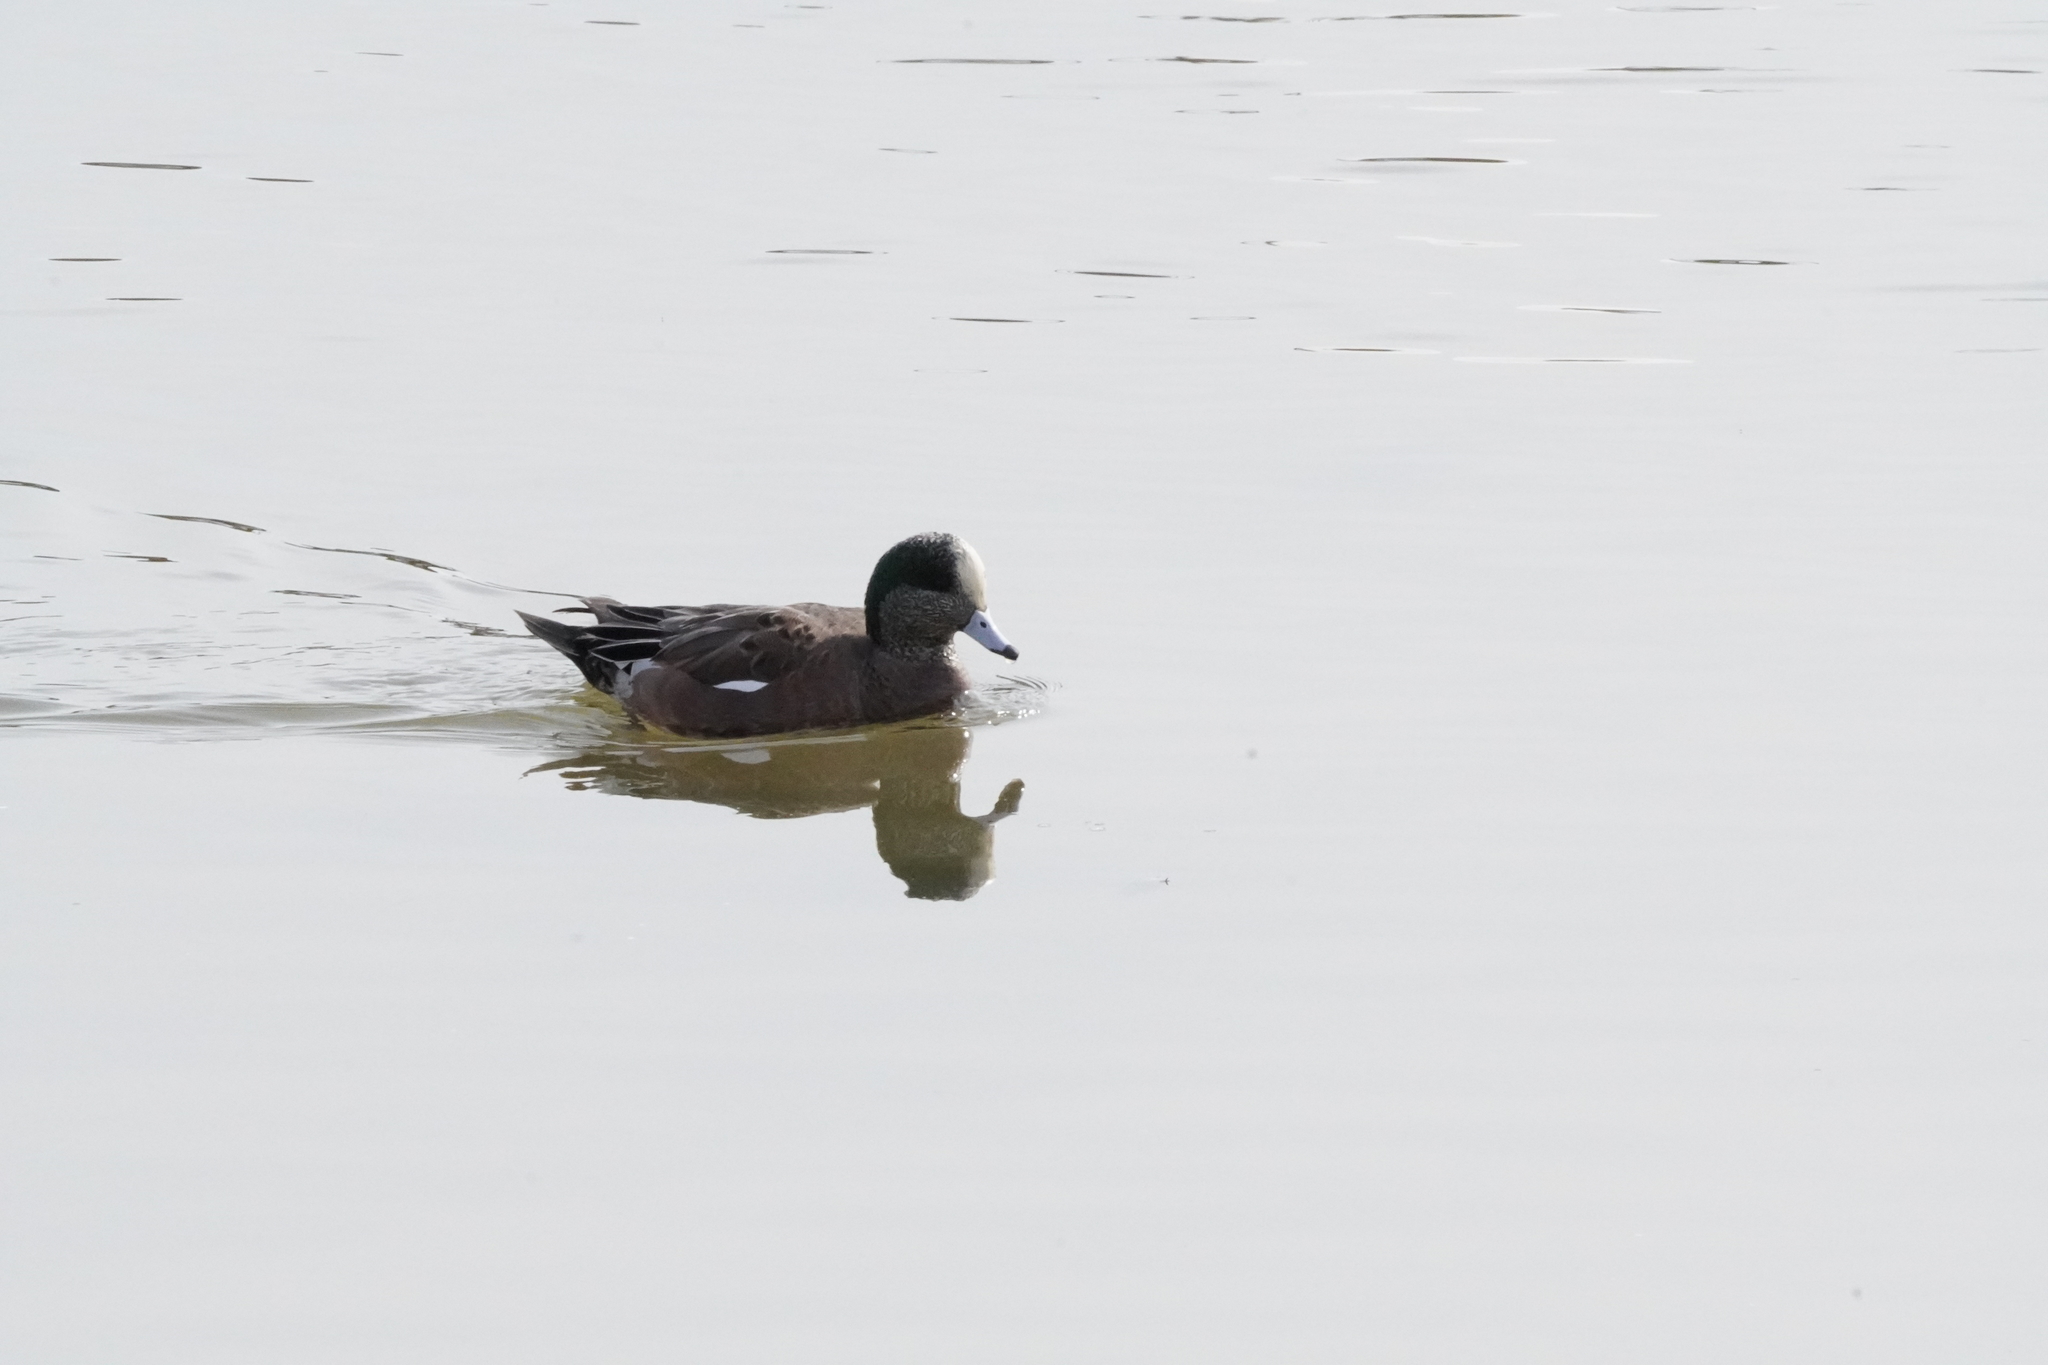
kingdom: Animalia
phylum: Chordata
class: Aves
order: Anseriformes
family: Anatidae
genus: Mareca
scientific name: Mareca americana
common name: American wigeon
